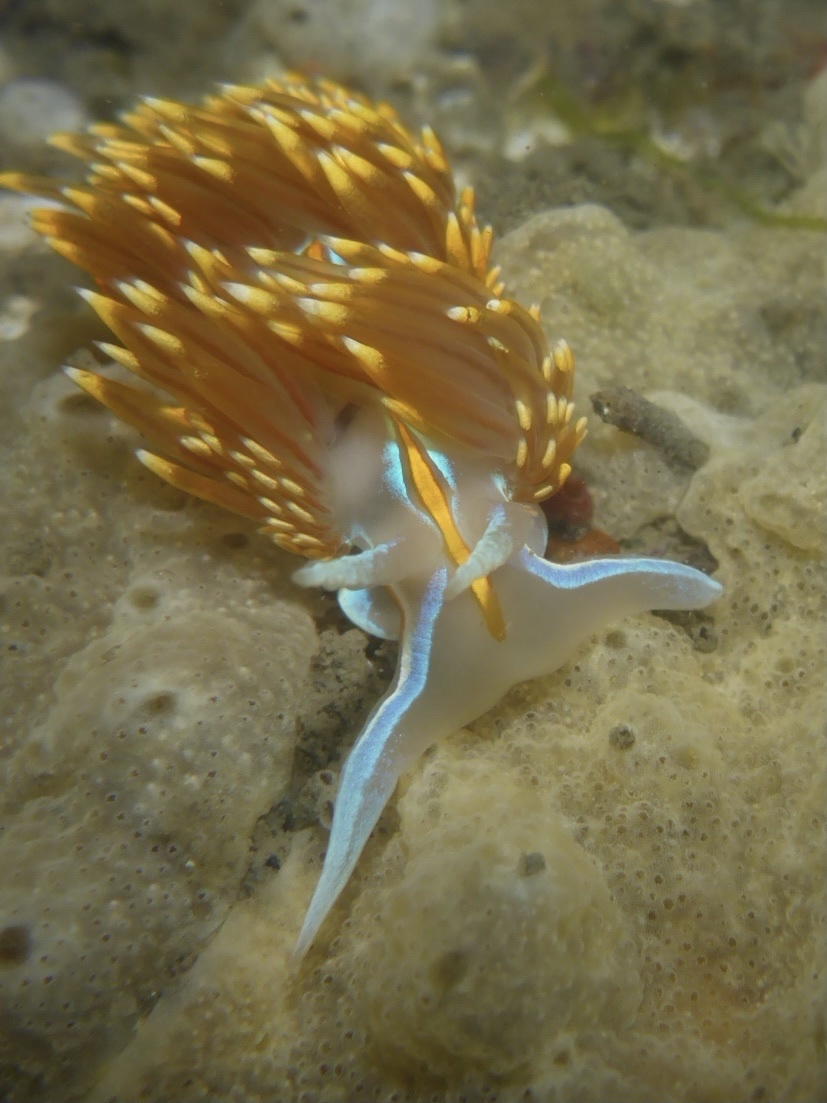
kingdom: Animalia
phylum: Mollusca
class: Gastropoda
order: Nudibranchia
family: Myrrhinidae
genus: Hermissenda
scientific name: Hermissenda opalescens
